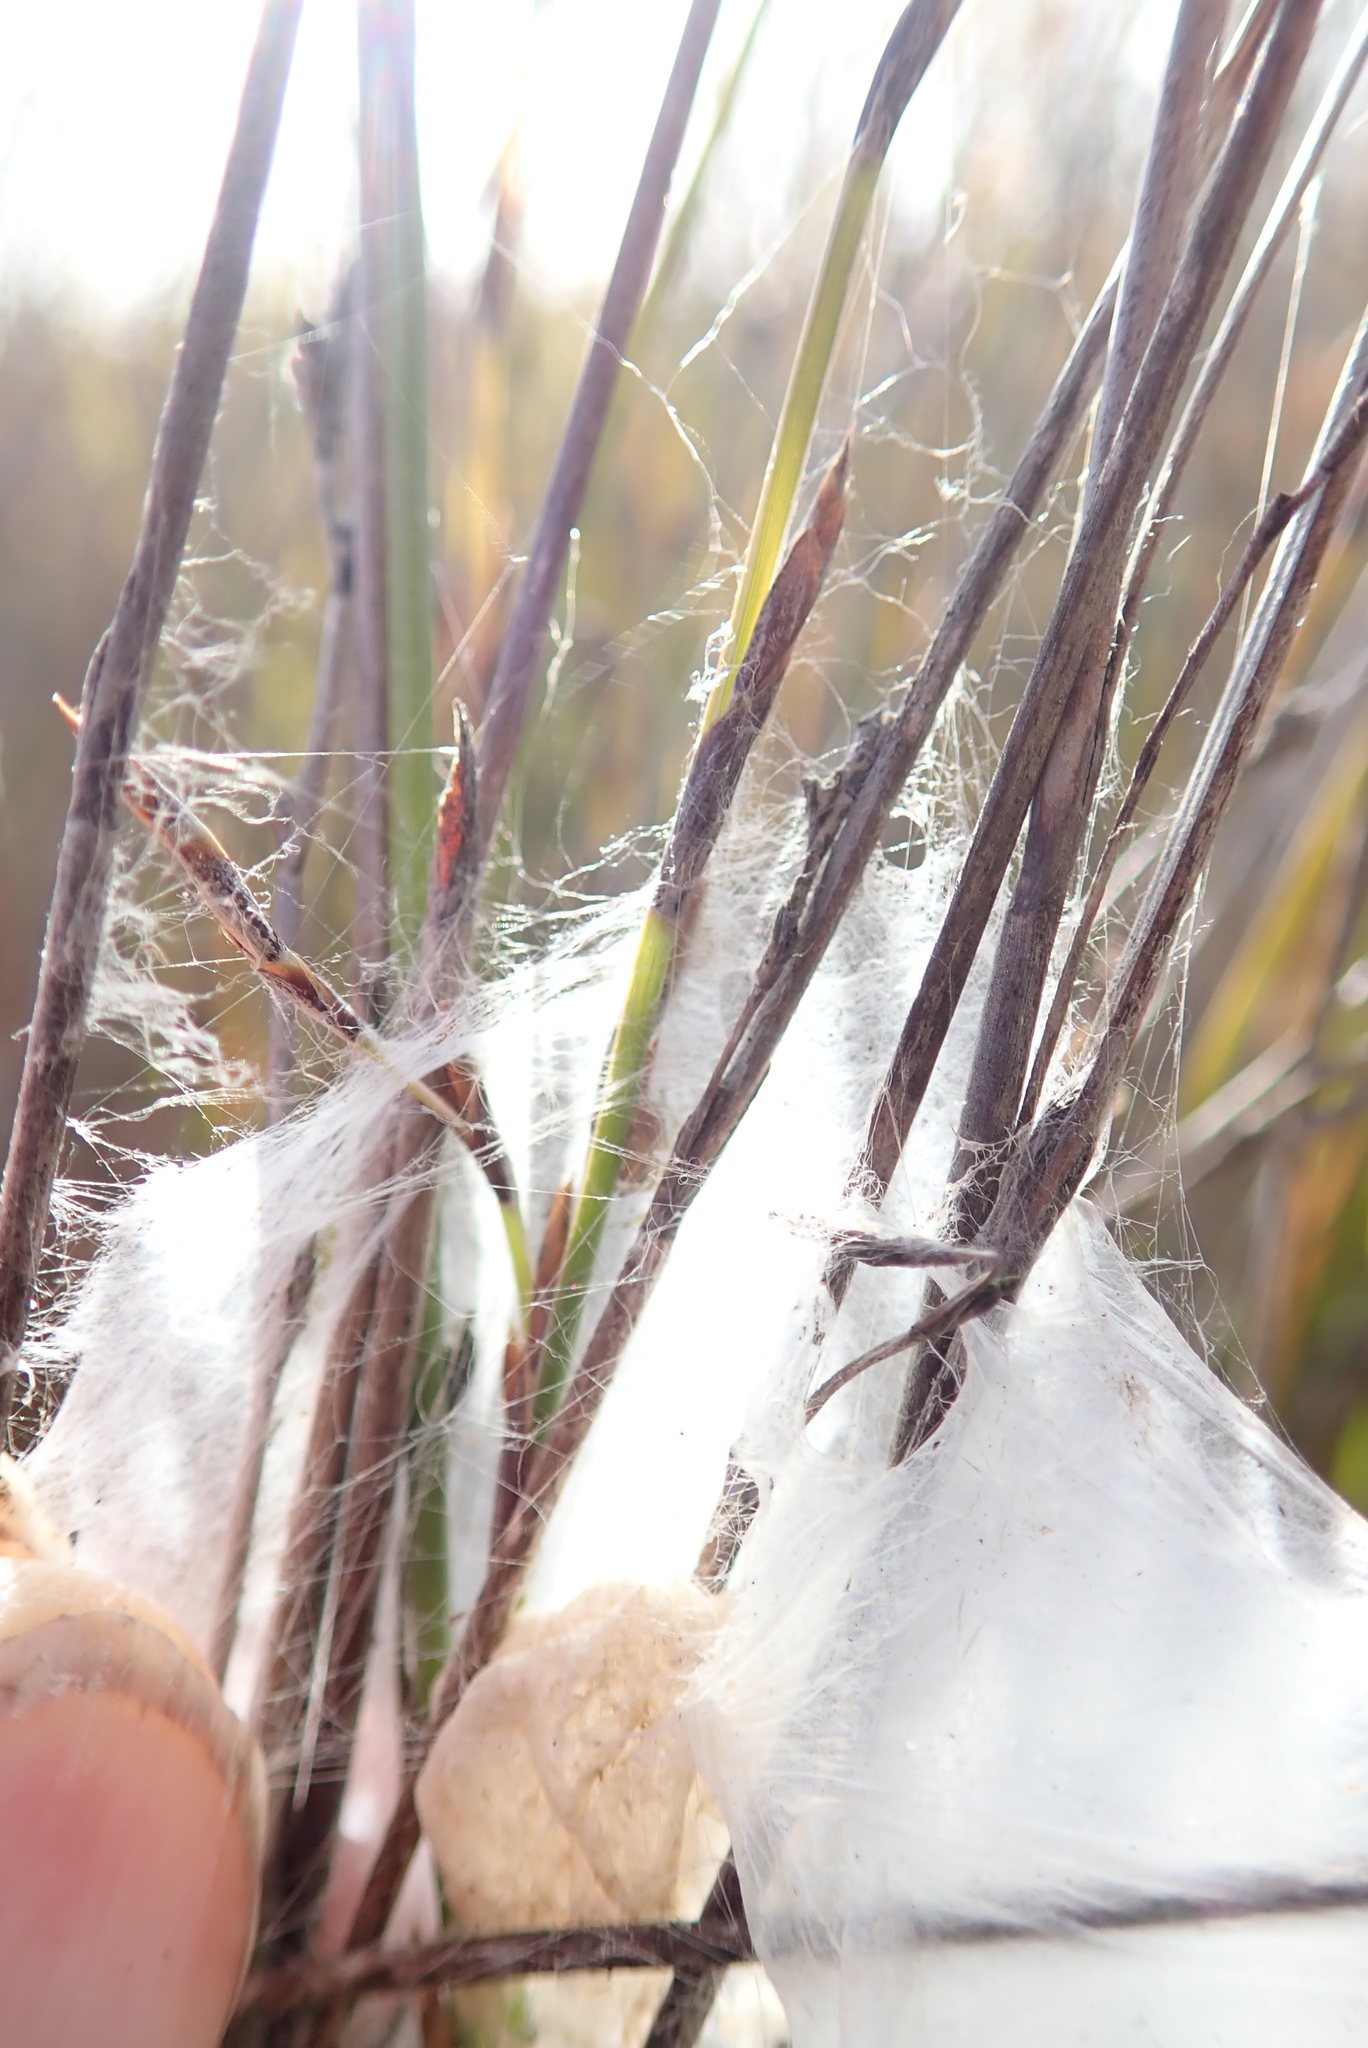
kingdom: Animalia
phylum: Arthropoda
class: Arachnida
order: Araneae
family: Pisauridae
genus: Dolomedes
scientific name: Dolomedes minor
